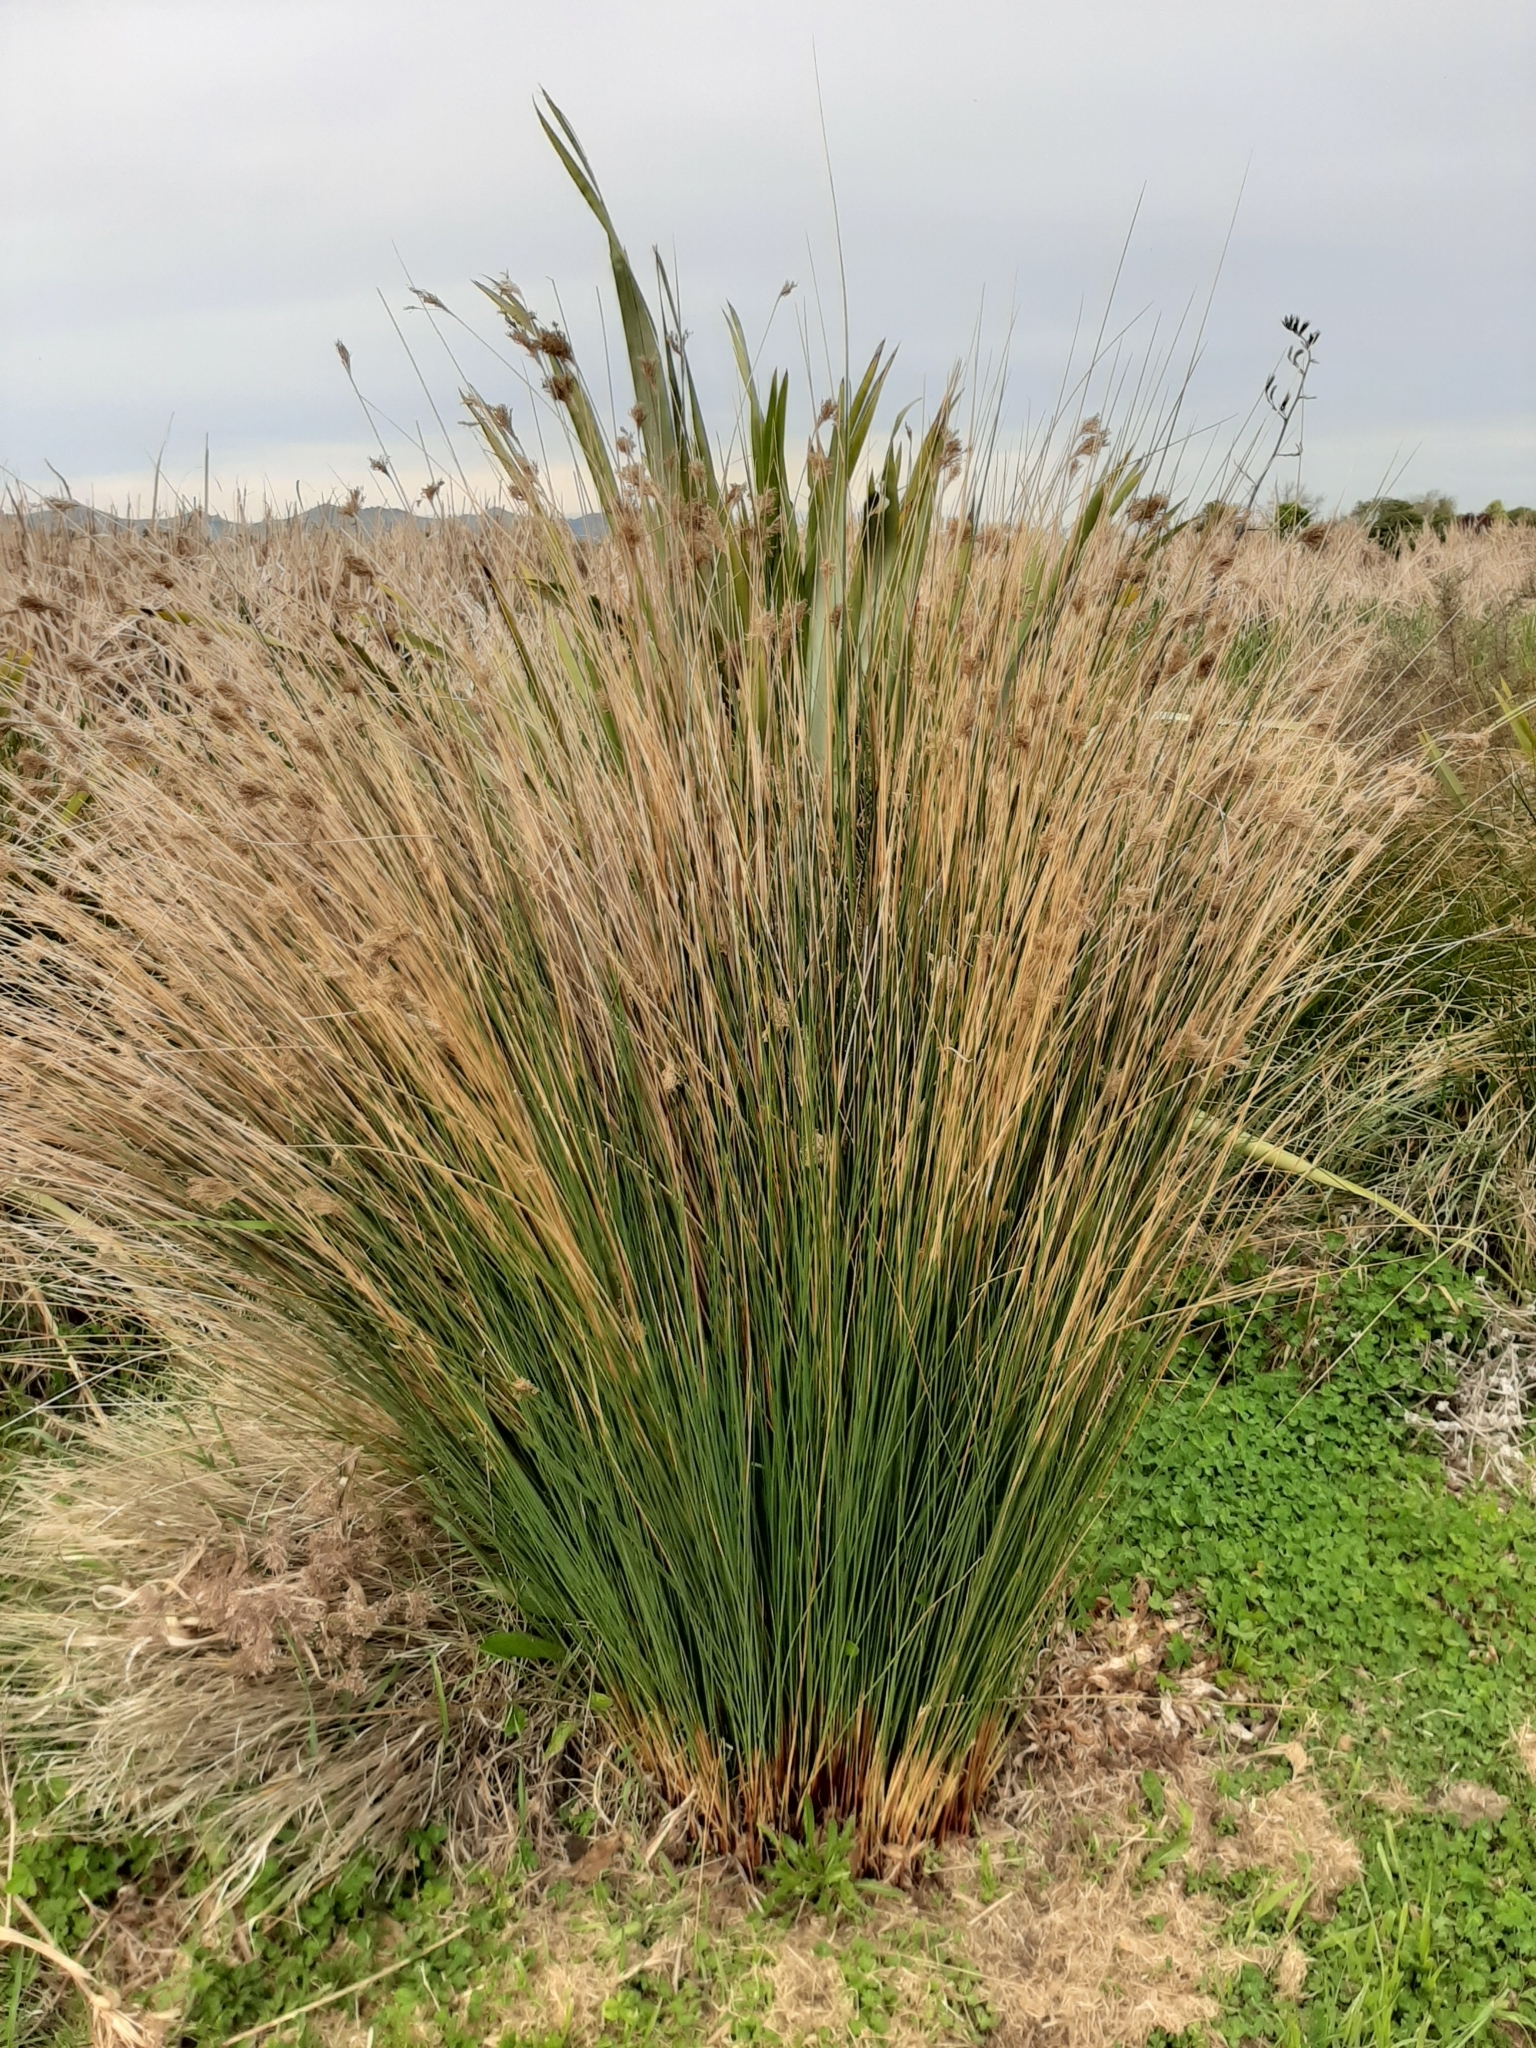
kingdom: Plantae
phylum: Tracheophyta
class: Liliopsida
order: Poales
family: Juncaceae
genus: Juncus
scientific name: Juncus sarophorus
